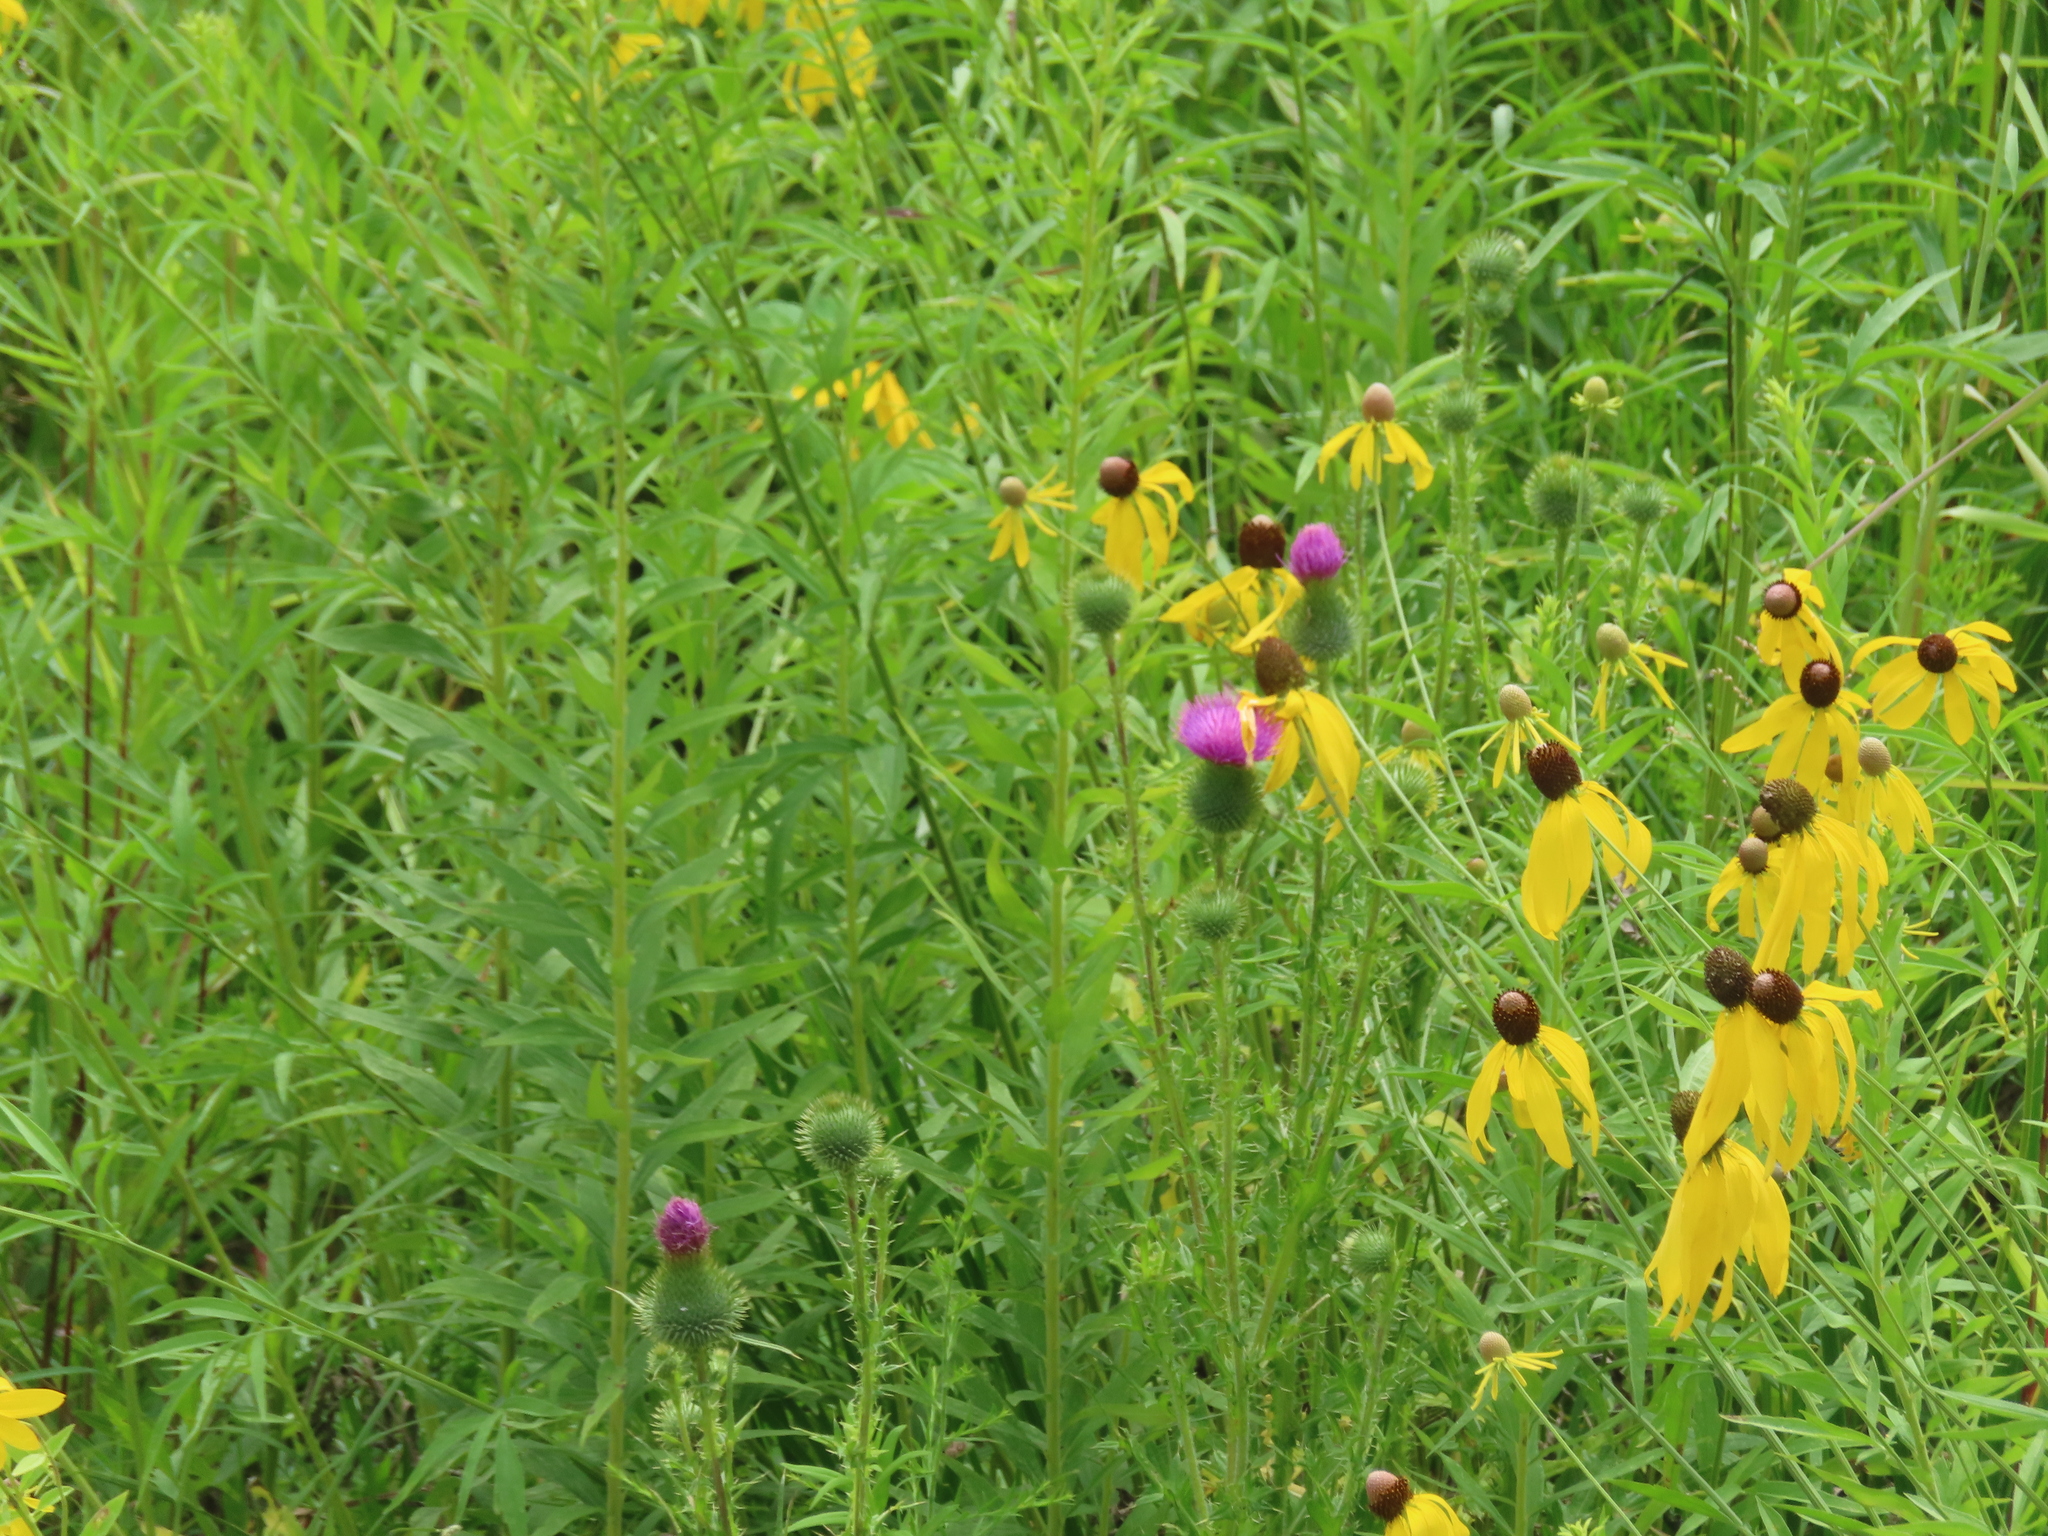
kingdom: Plantae
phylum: Tracheophyta
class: Magnoliopsida
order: Asterales
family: Asteraceae
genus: Cirsium
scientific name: Cirsium vulgare
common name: Bull thistle
